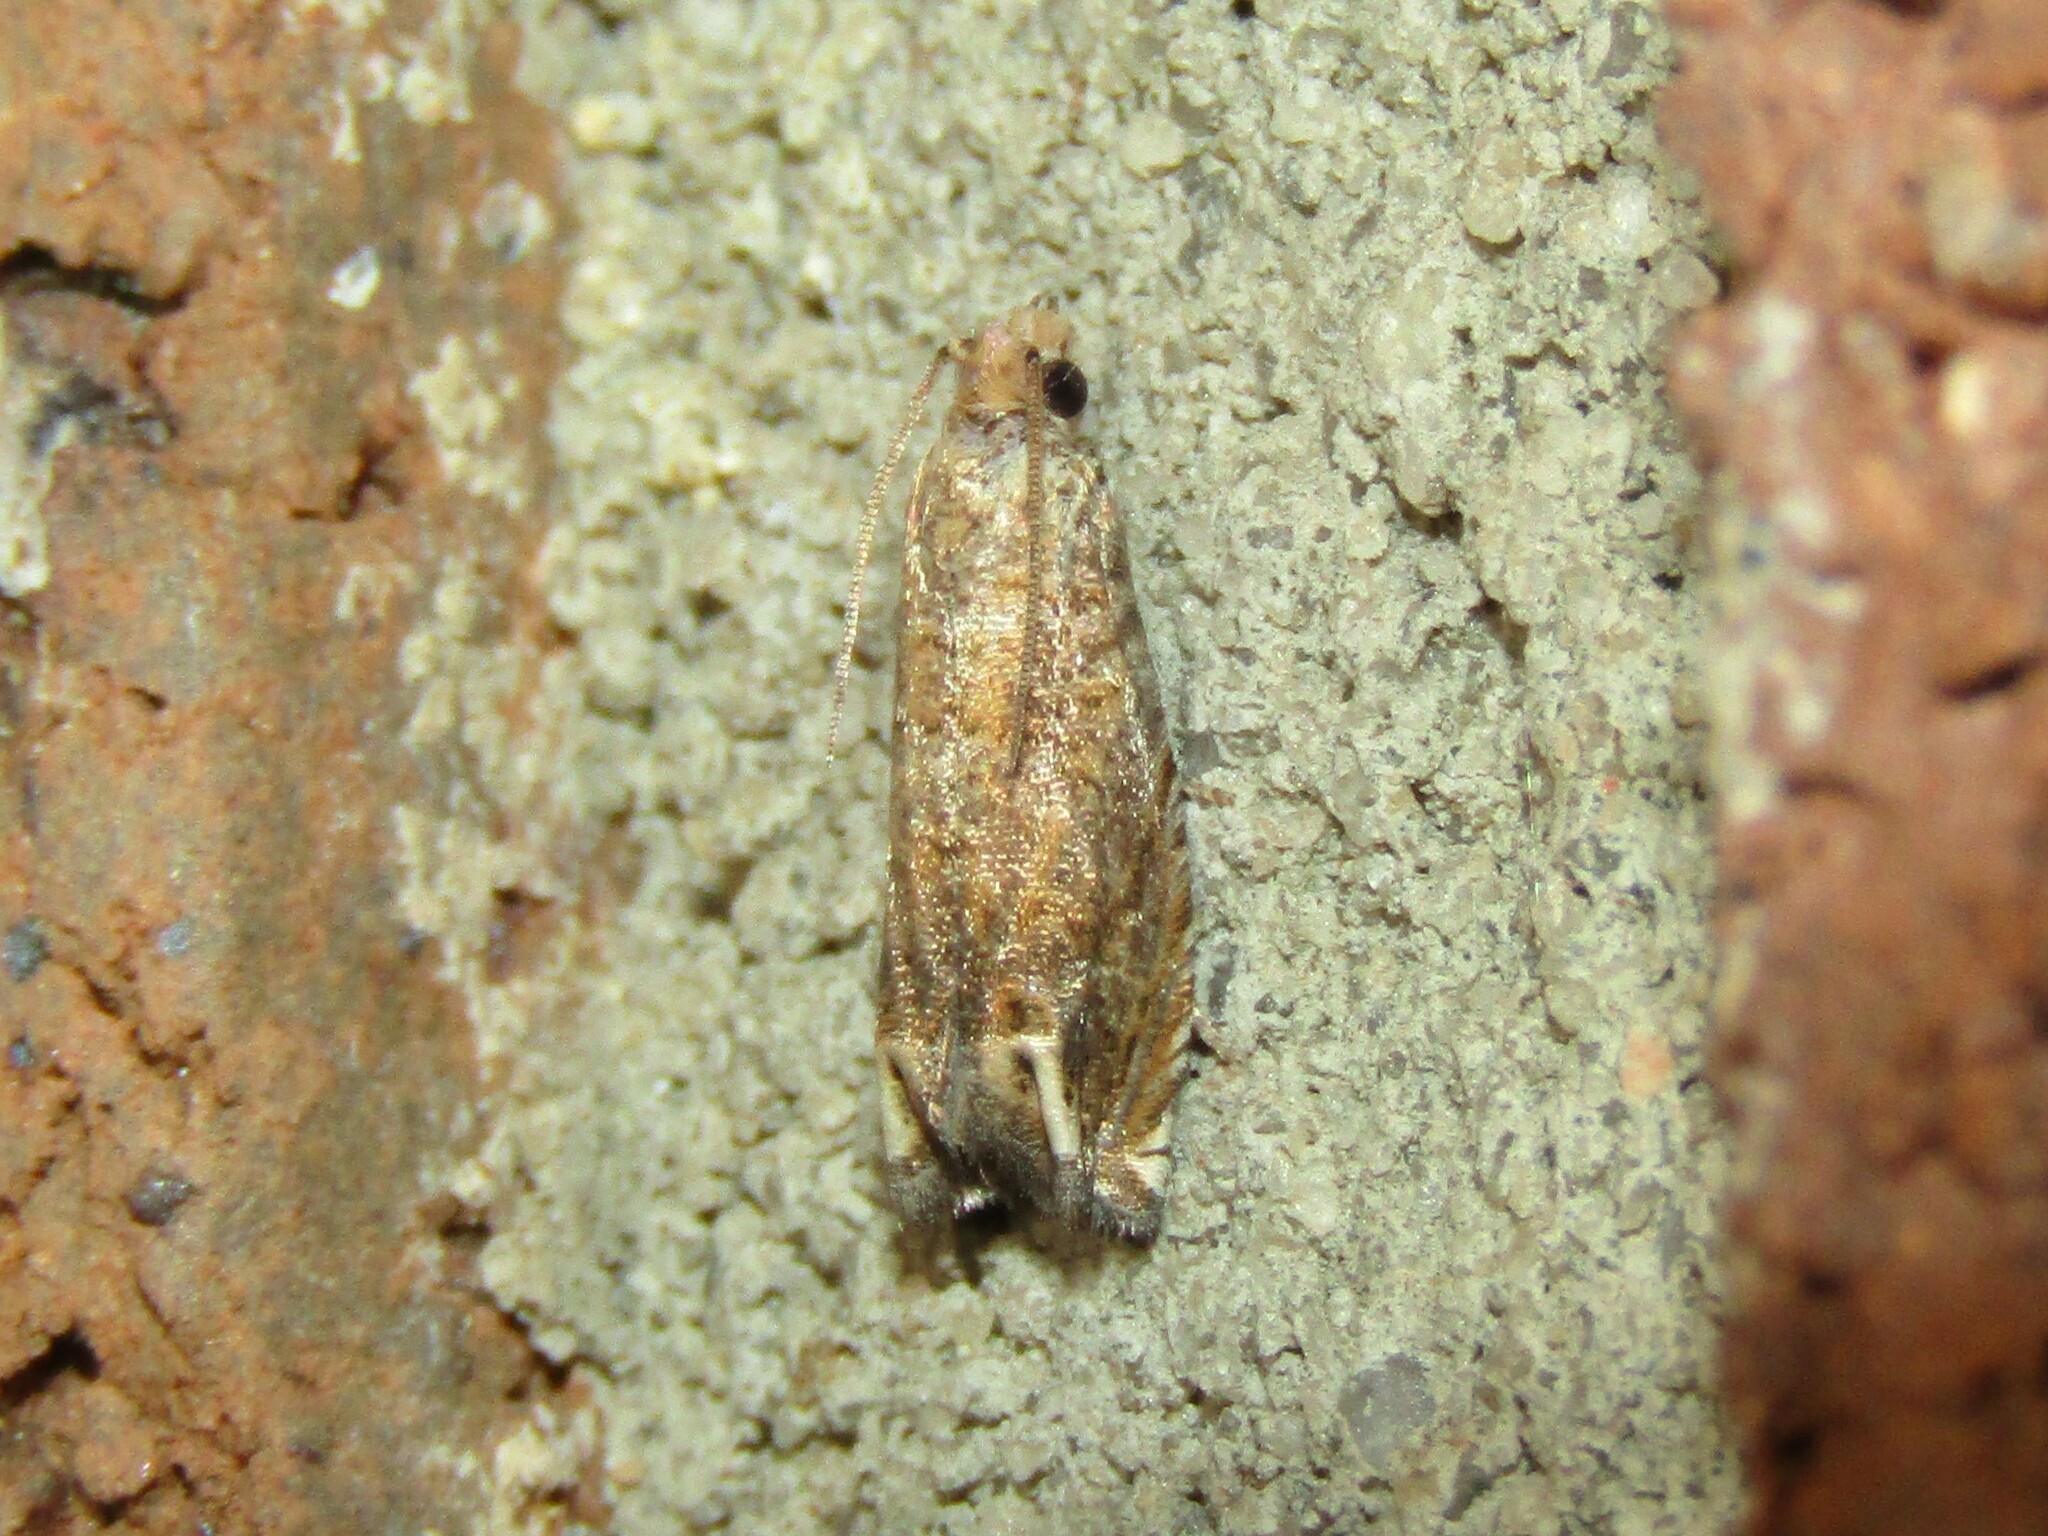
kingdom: Animalia
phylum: Arthropoda
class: Insecta
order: Lepidoptera
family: Tortricidae
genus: Epiblema
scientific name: Epiblema mandana
